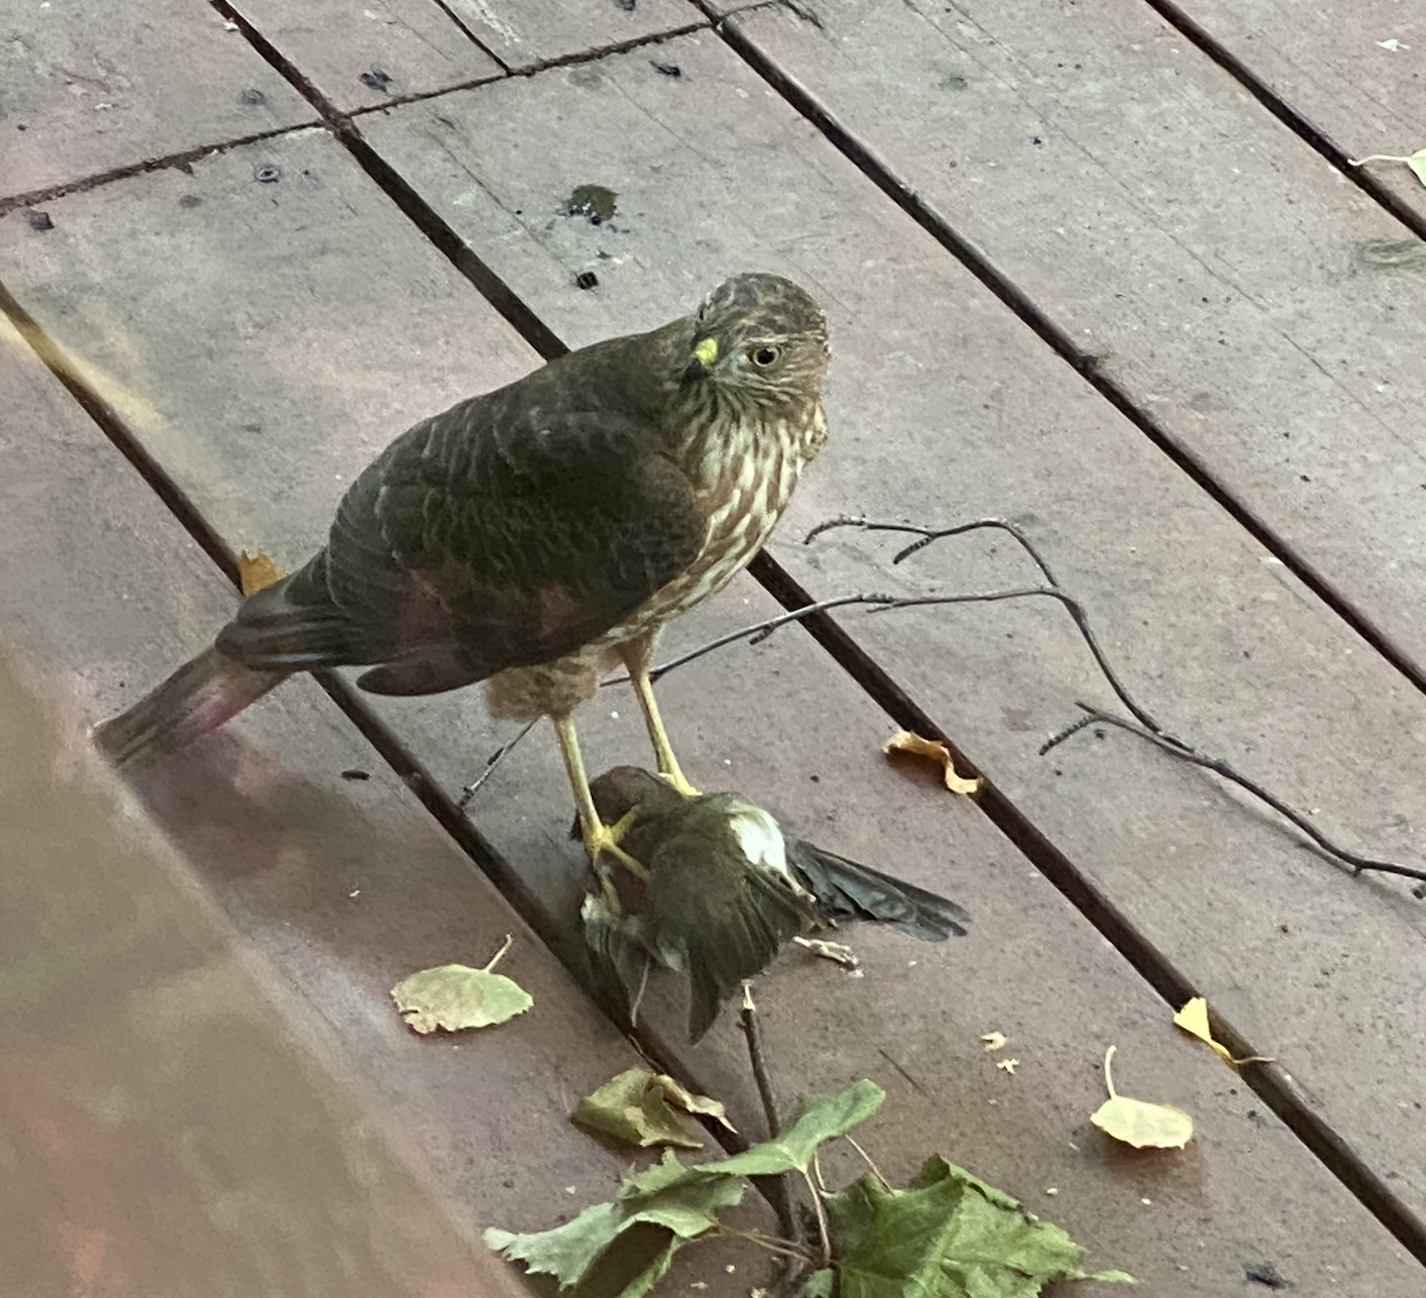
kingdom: Animalia
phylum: Chordata
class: Aves
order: Passeriformes
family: Passerellidae
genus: Junco
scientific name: Junco hyemalis
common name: Dark-eyed junco
